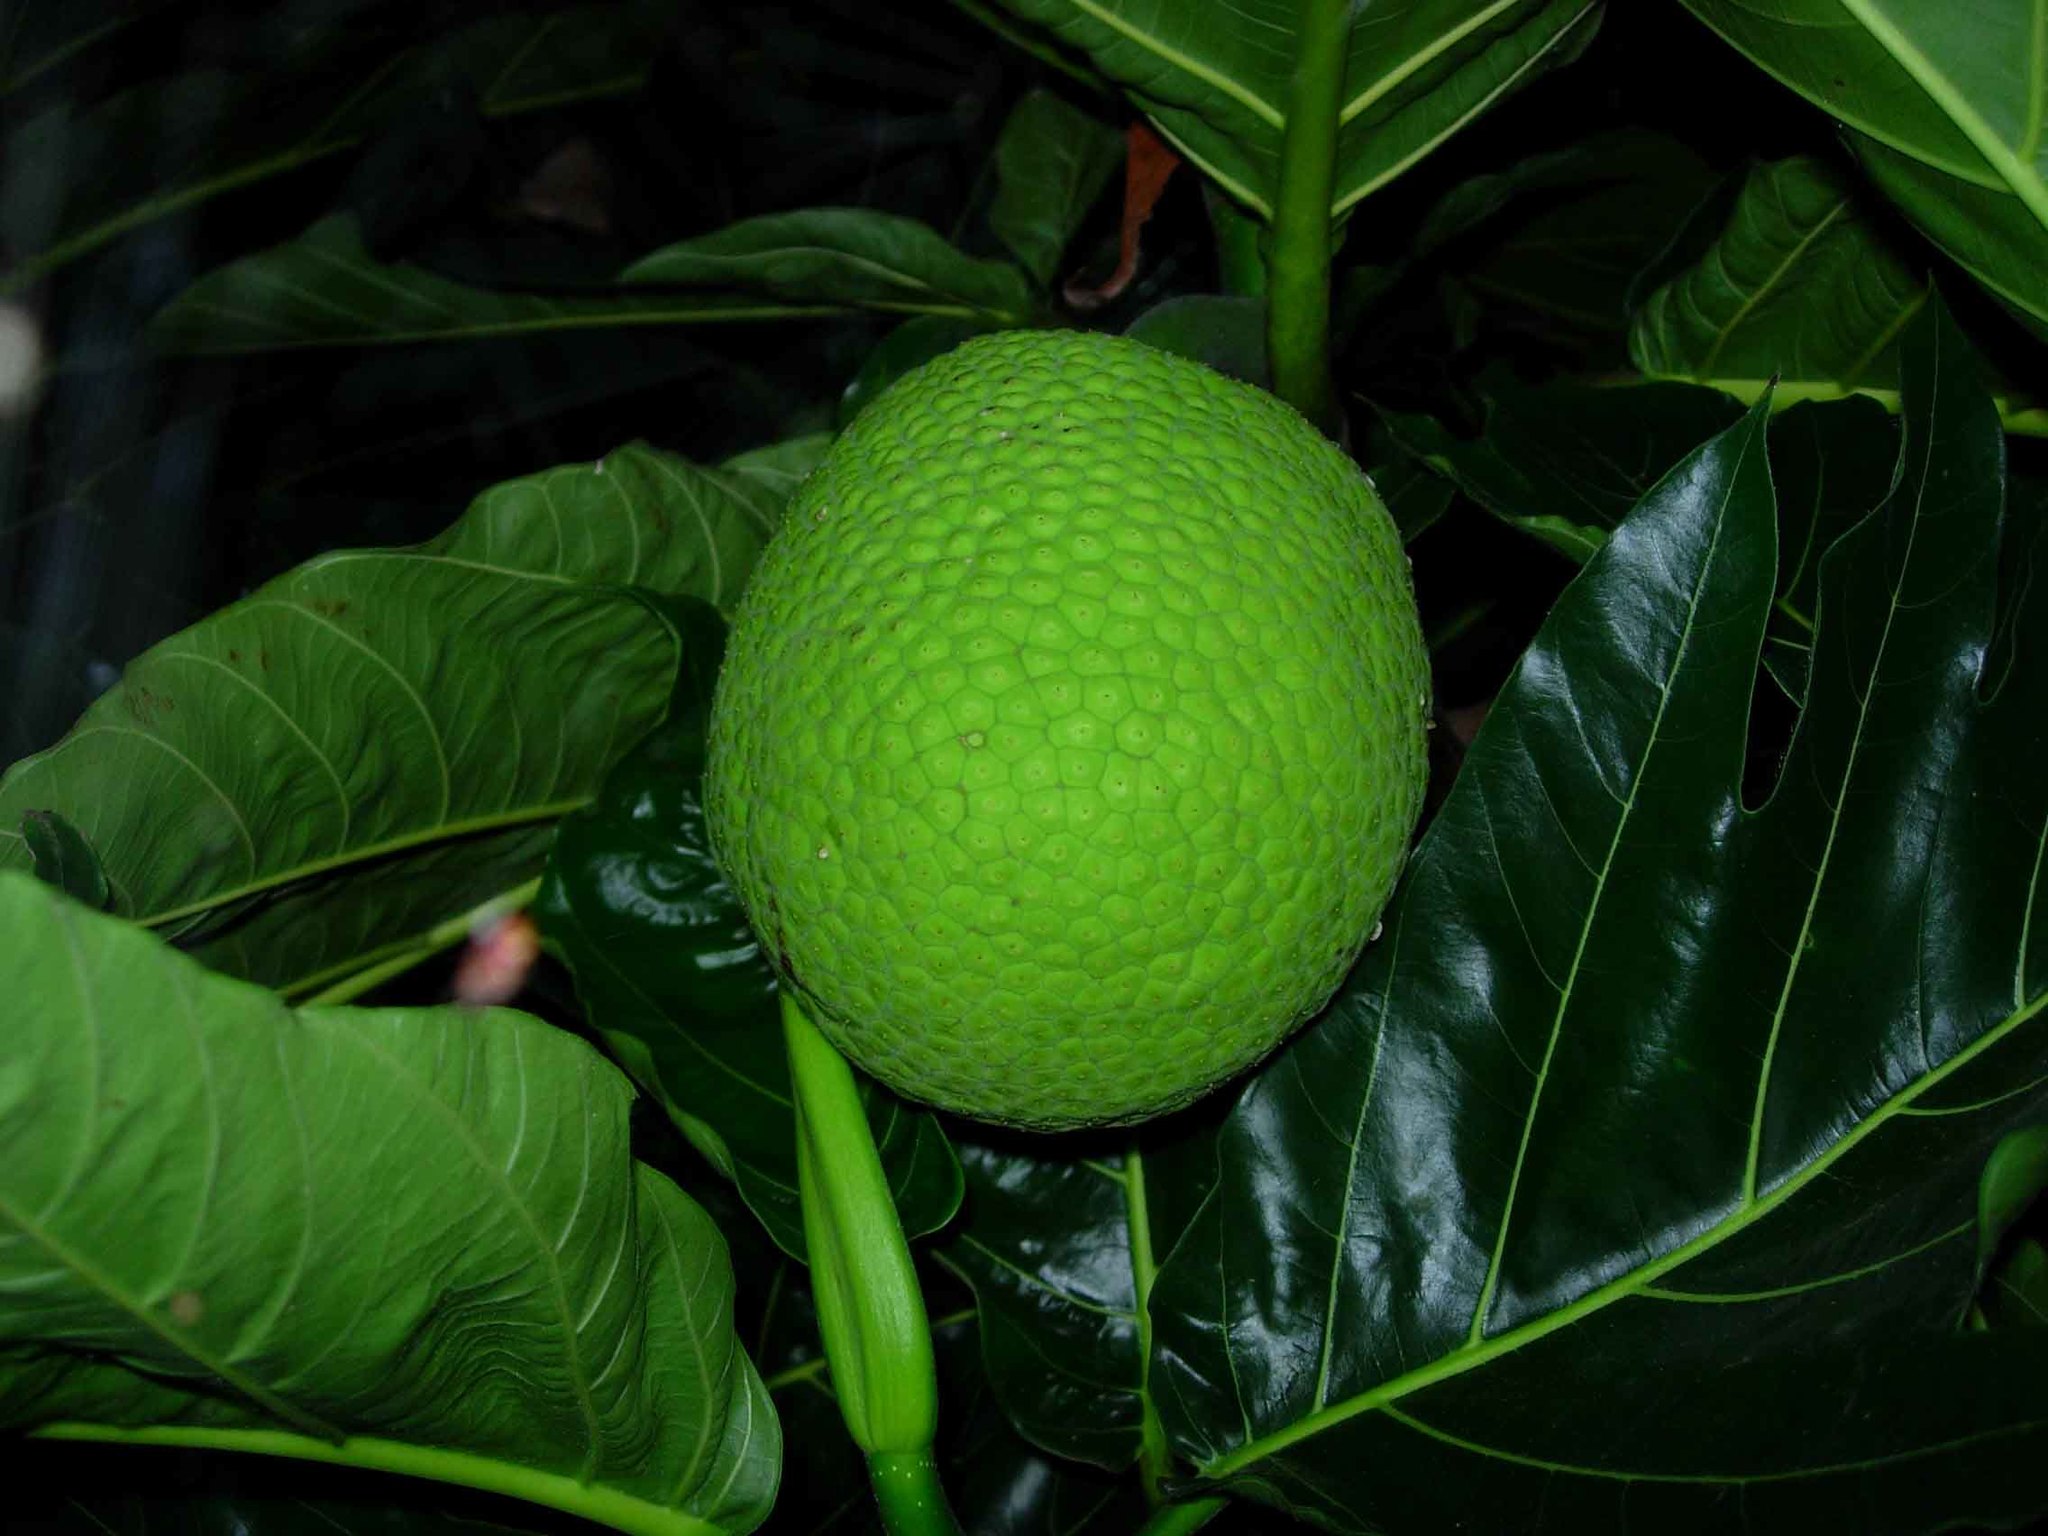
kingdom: Plantae
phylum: Tracheophyta
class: Magnoliopsida
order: Rosales
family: Moraceae
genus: Artocarpus
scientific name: Artocarpus altilis
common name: Breadfruit
